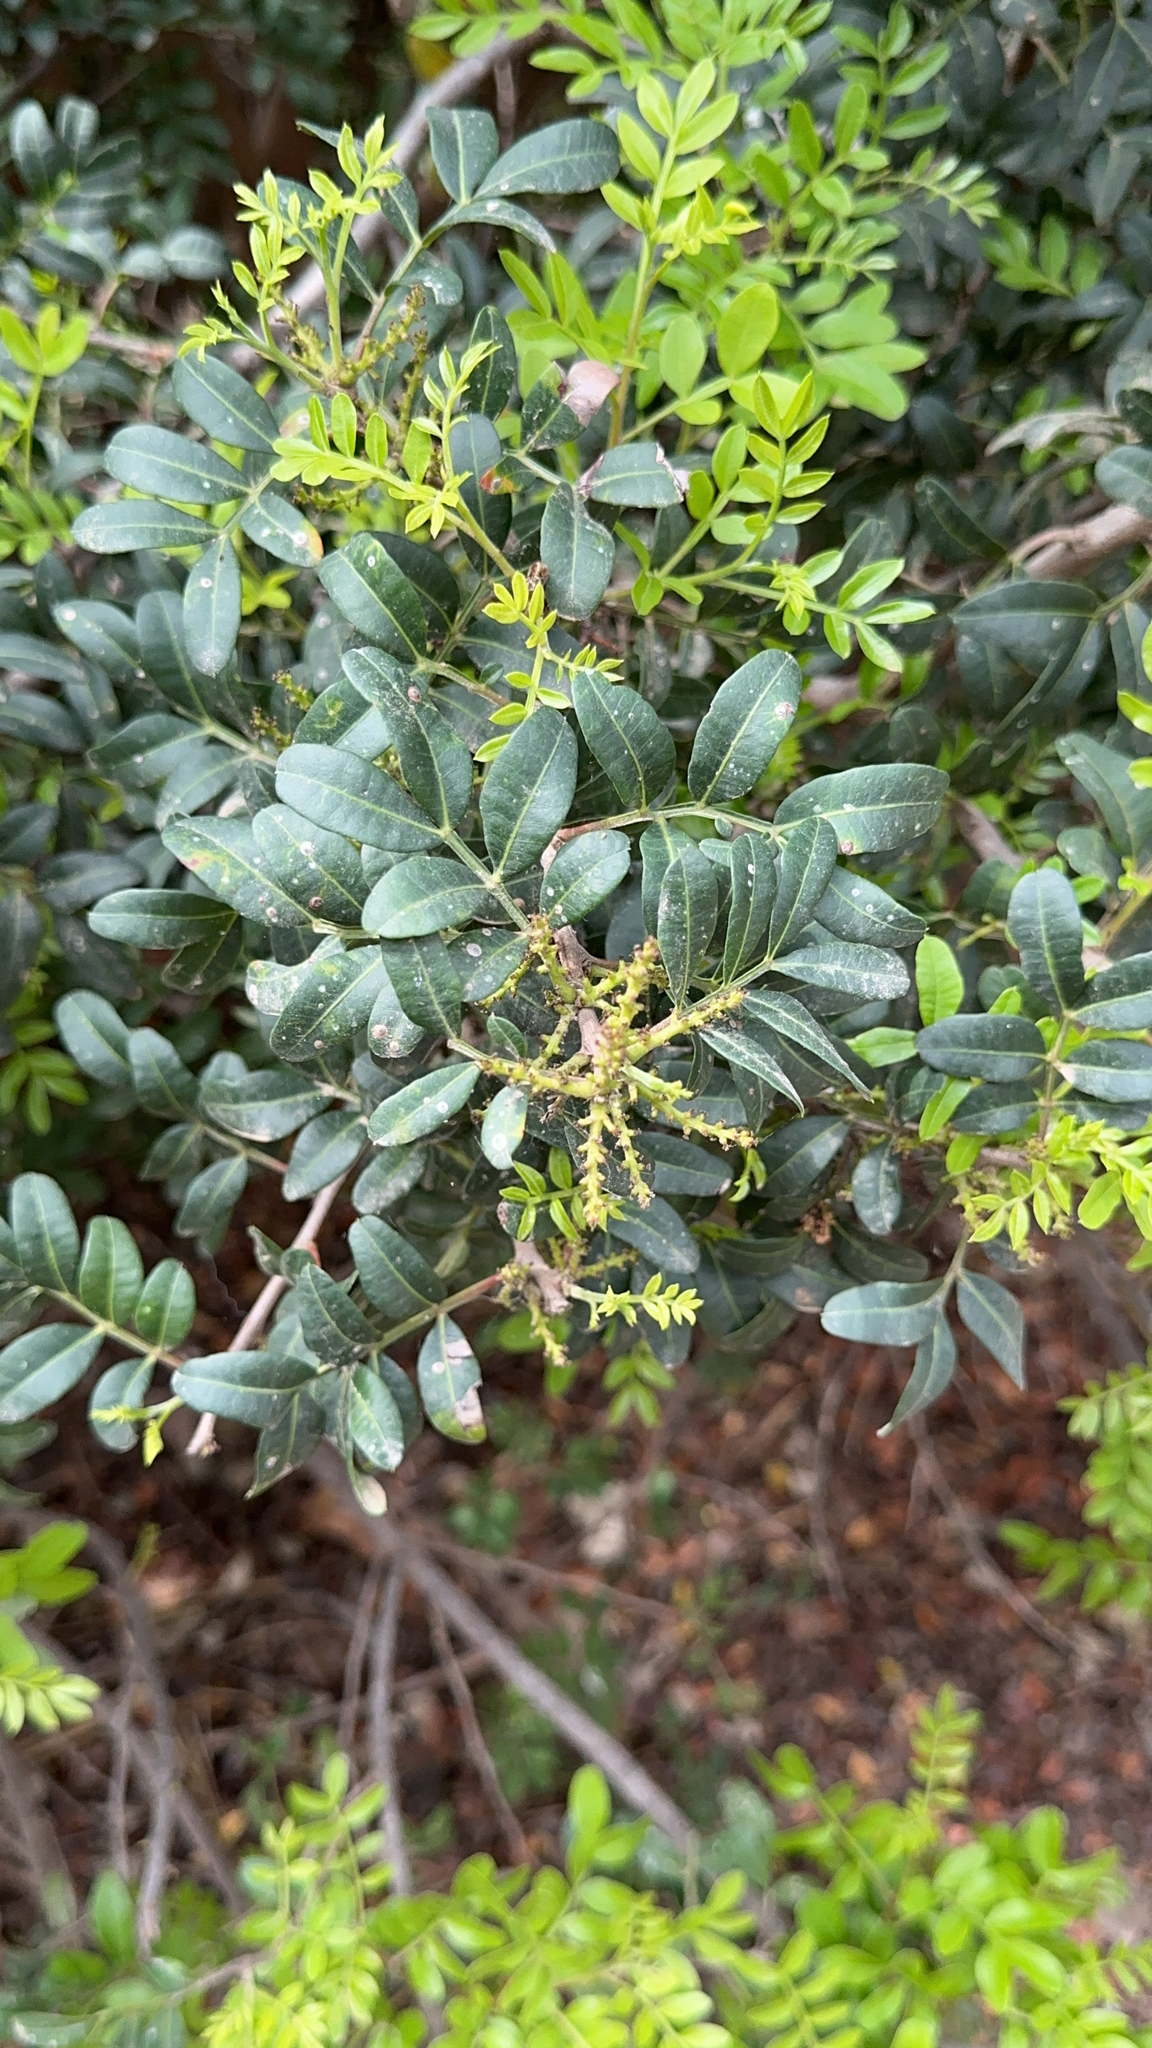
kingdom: Plantae
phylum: Tracheophyta
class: Magnoliopsida
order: Sapindales
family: Anacardiaceae
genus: Pistacia
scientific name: Pistacia lentiscus
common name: Lentisk
